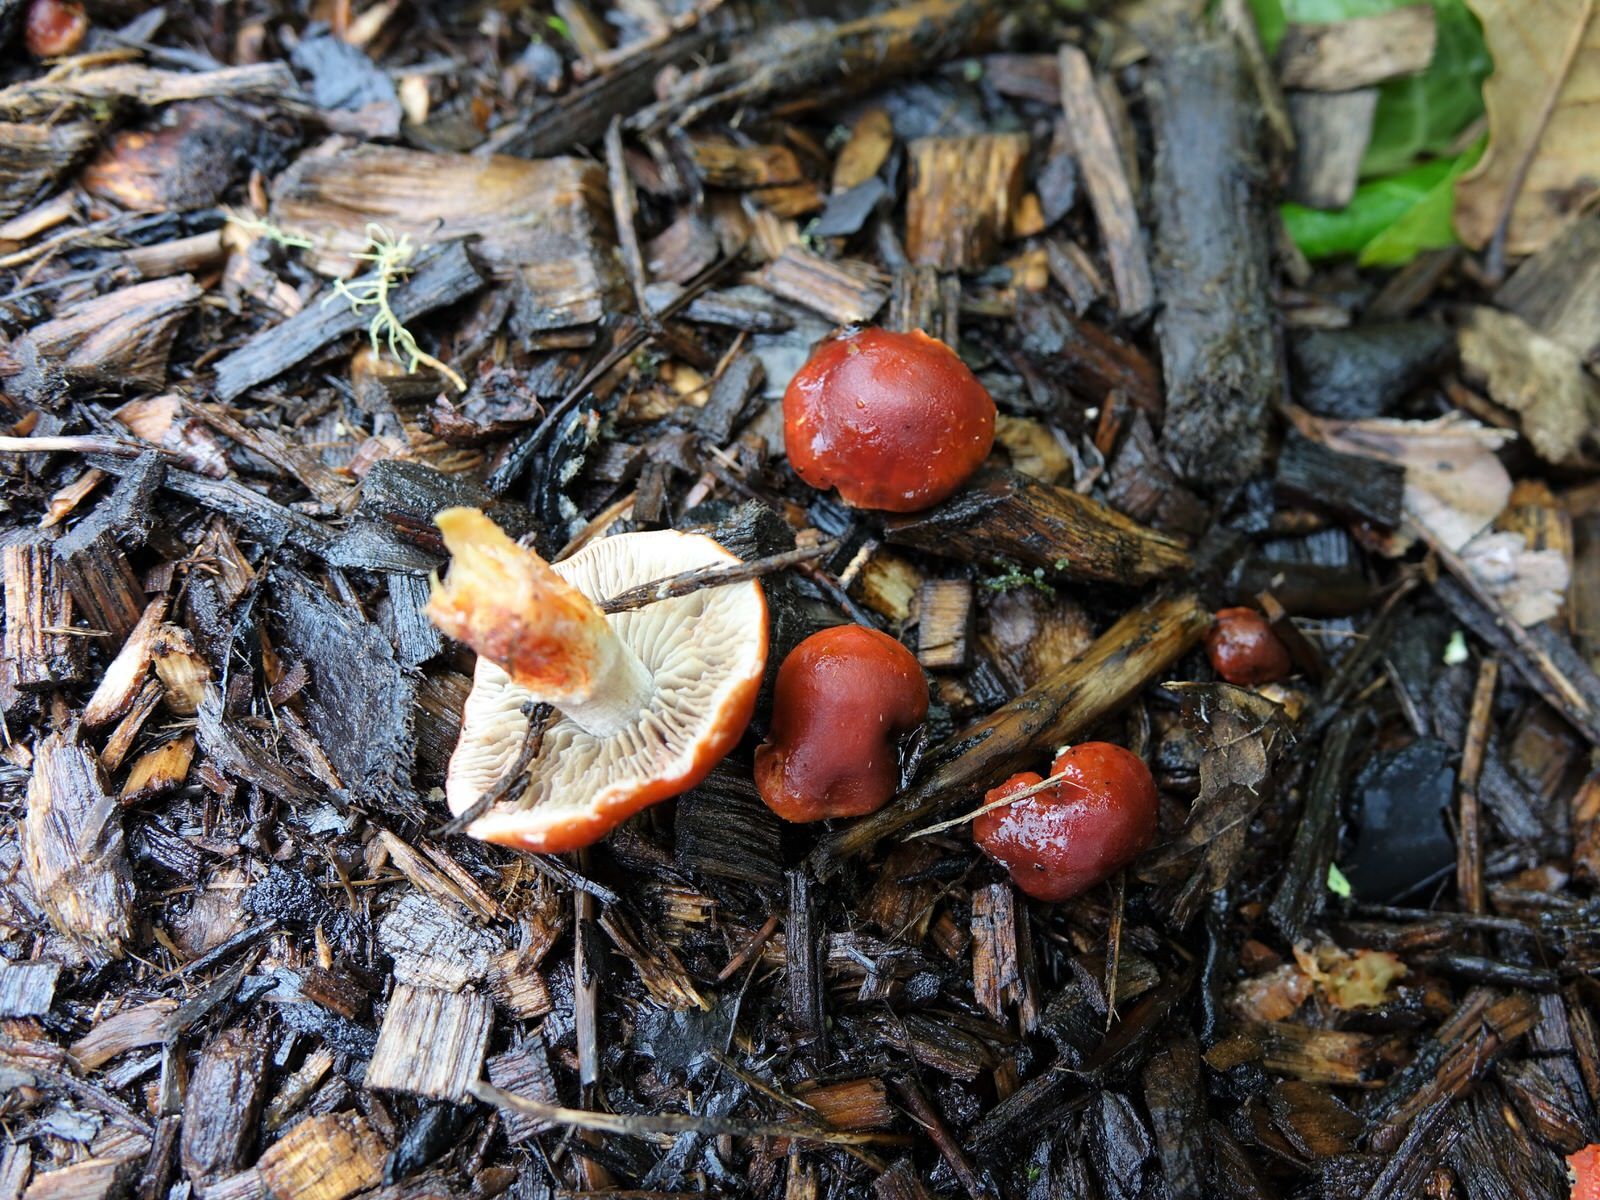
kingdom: Fungi
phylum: Basidiomycota
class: Agaricomycetes
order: Agaricales
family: Strophariaceae
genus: Leratiomyces
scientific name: Leratiomyces ceres
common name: Redlead roundhead
